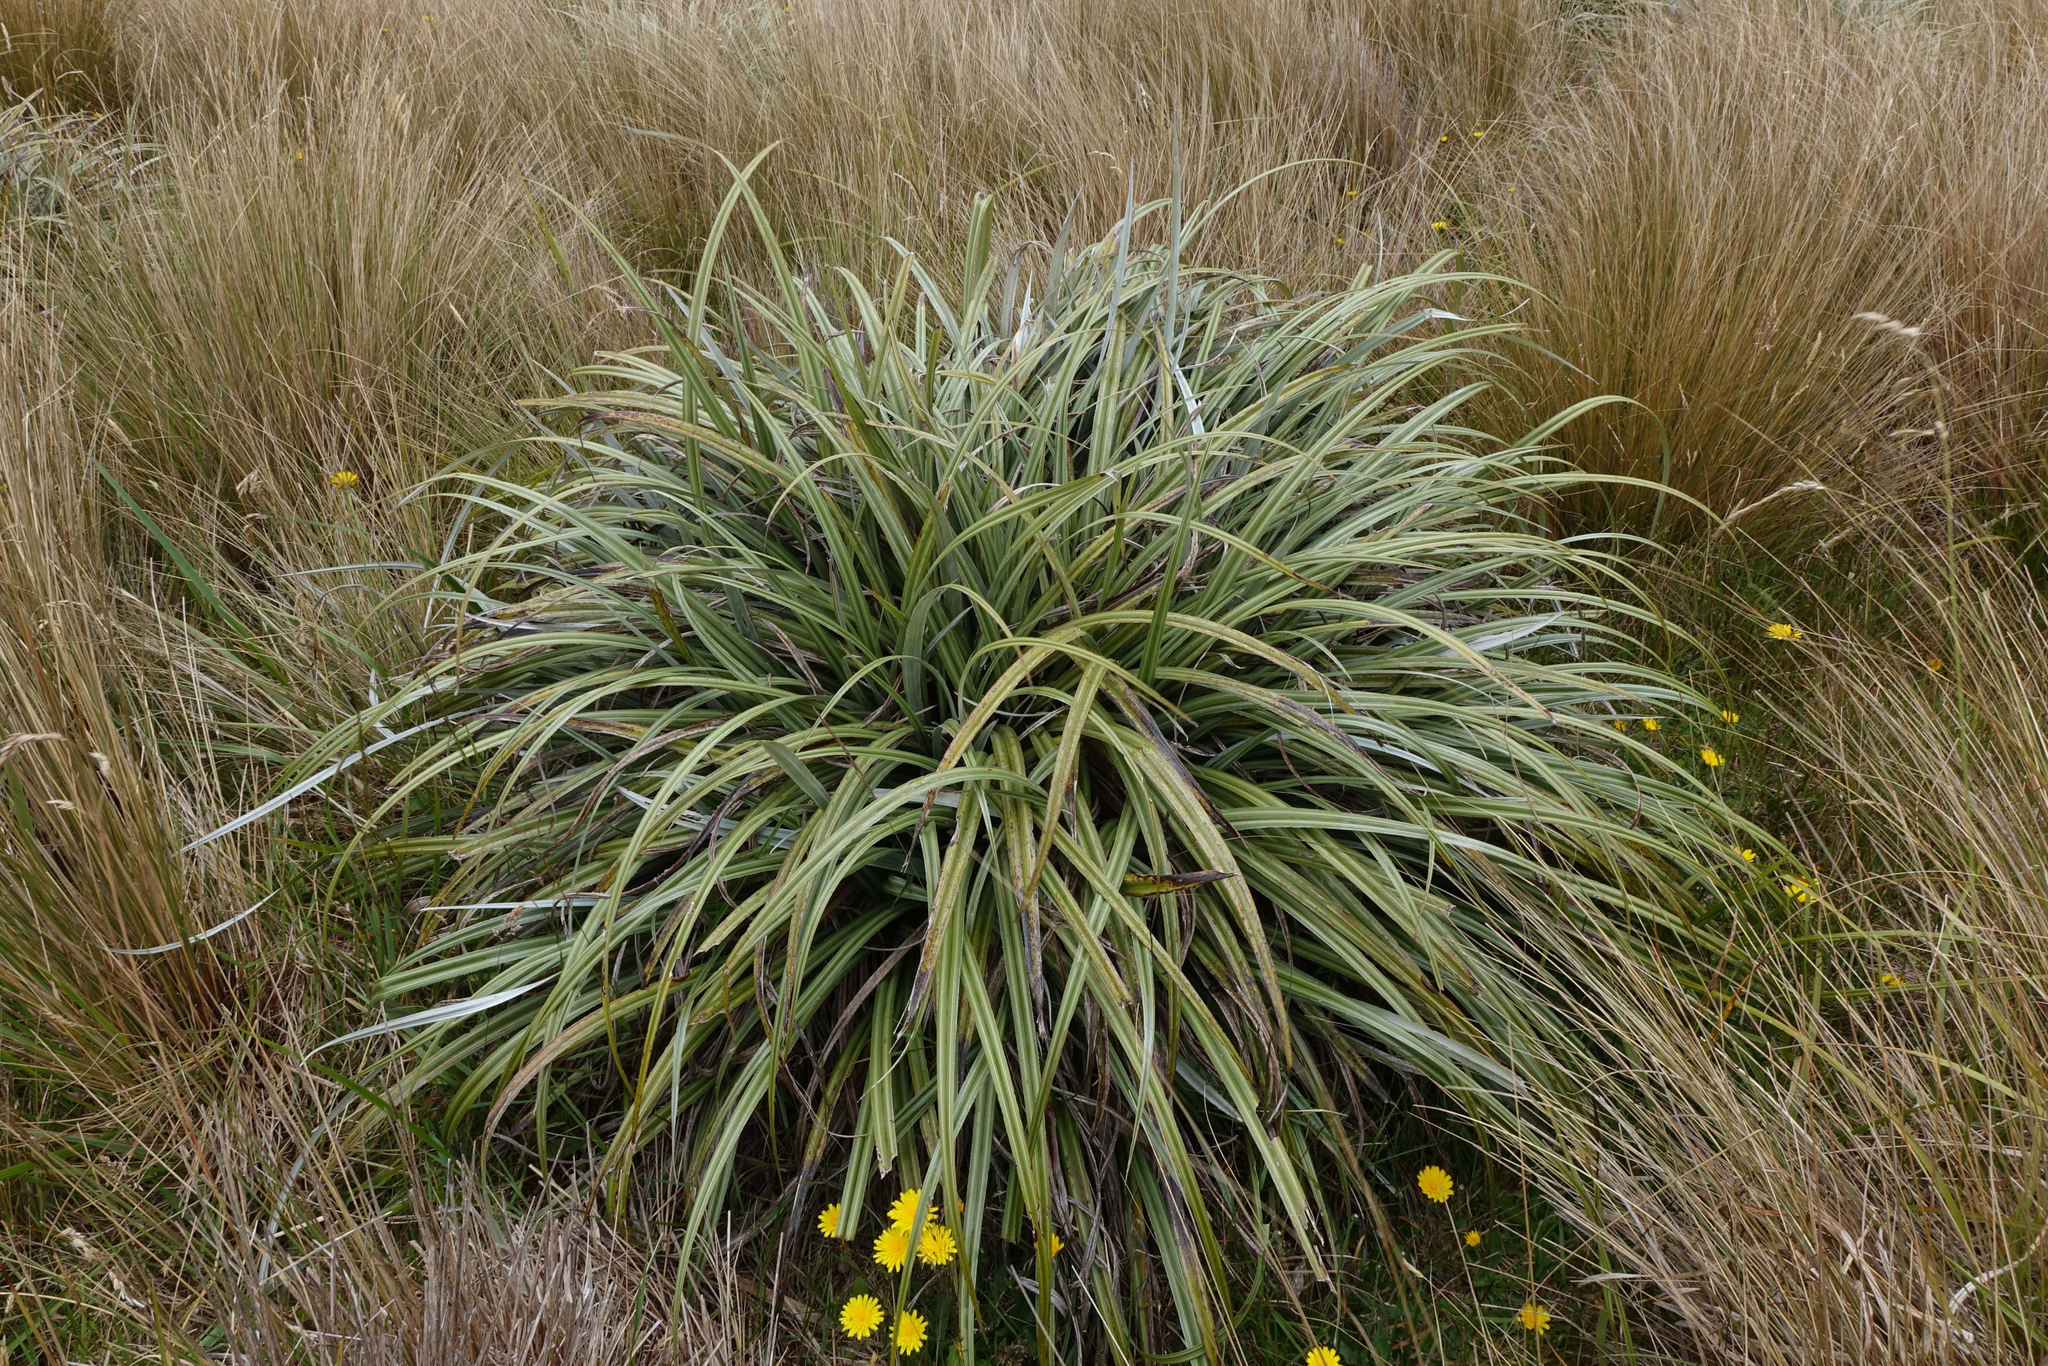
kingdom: Plantae
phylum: Tracheophyta
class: Liliopsida
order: Asparagales
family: Asteliaceae
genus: Astelia
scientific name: Astelia nervosa
